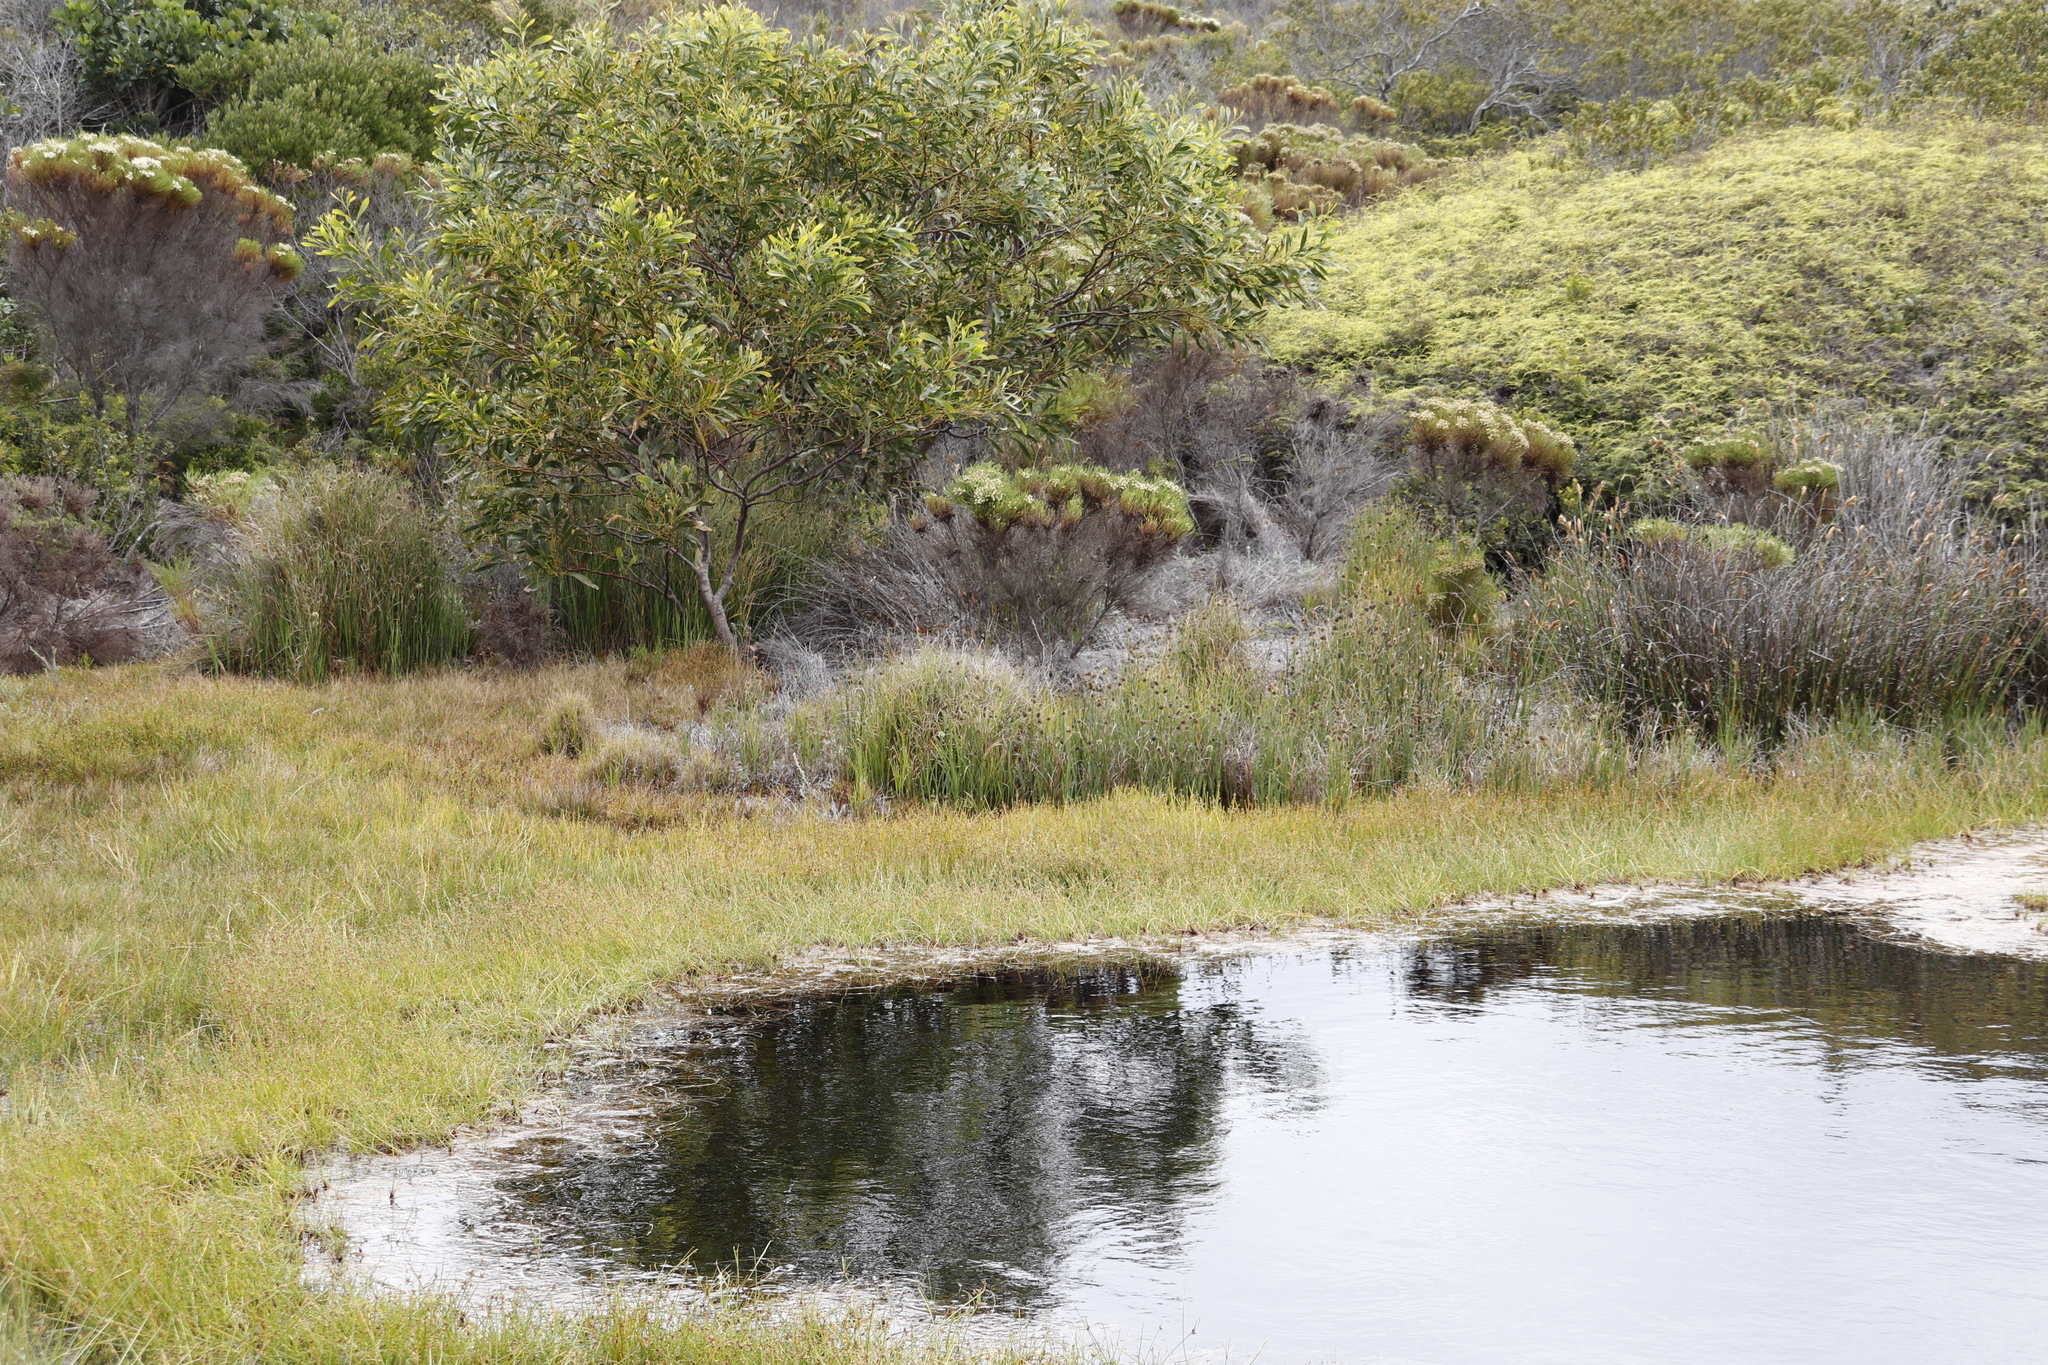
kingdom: Plantae
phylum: Tracheophyta
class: Magnoliopsida
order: Fabales
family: Fabaceae
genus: Acacia
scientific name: Acacia saligna
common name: Orange wattle
